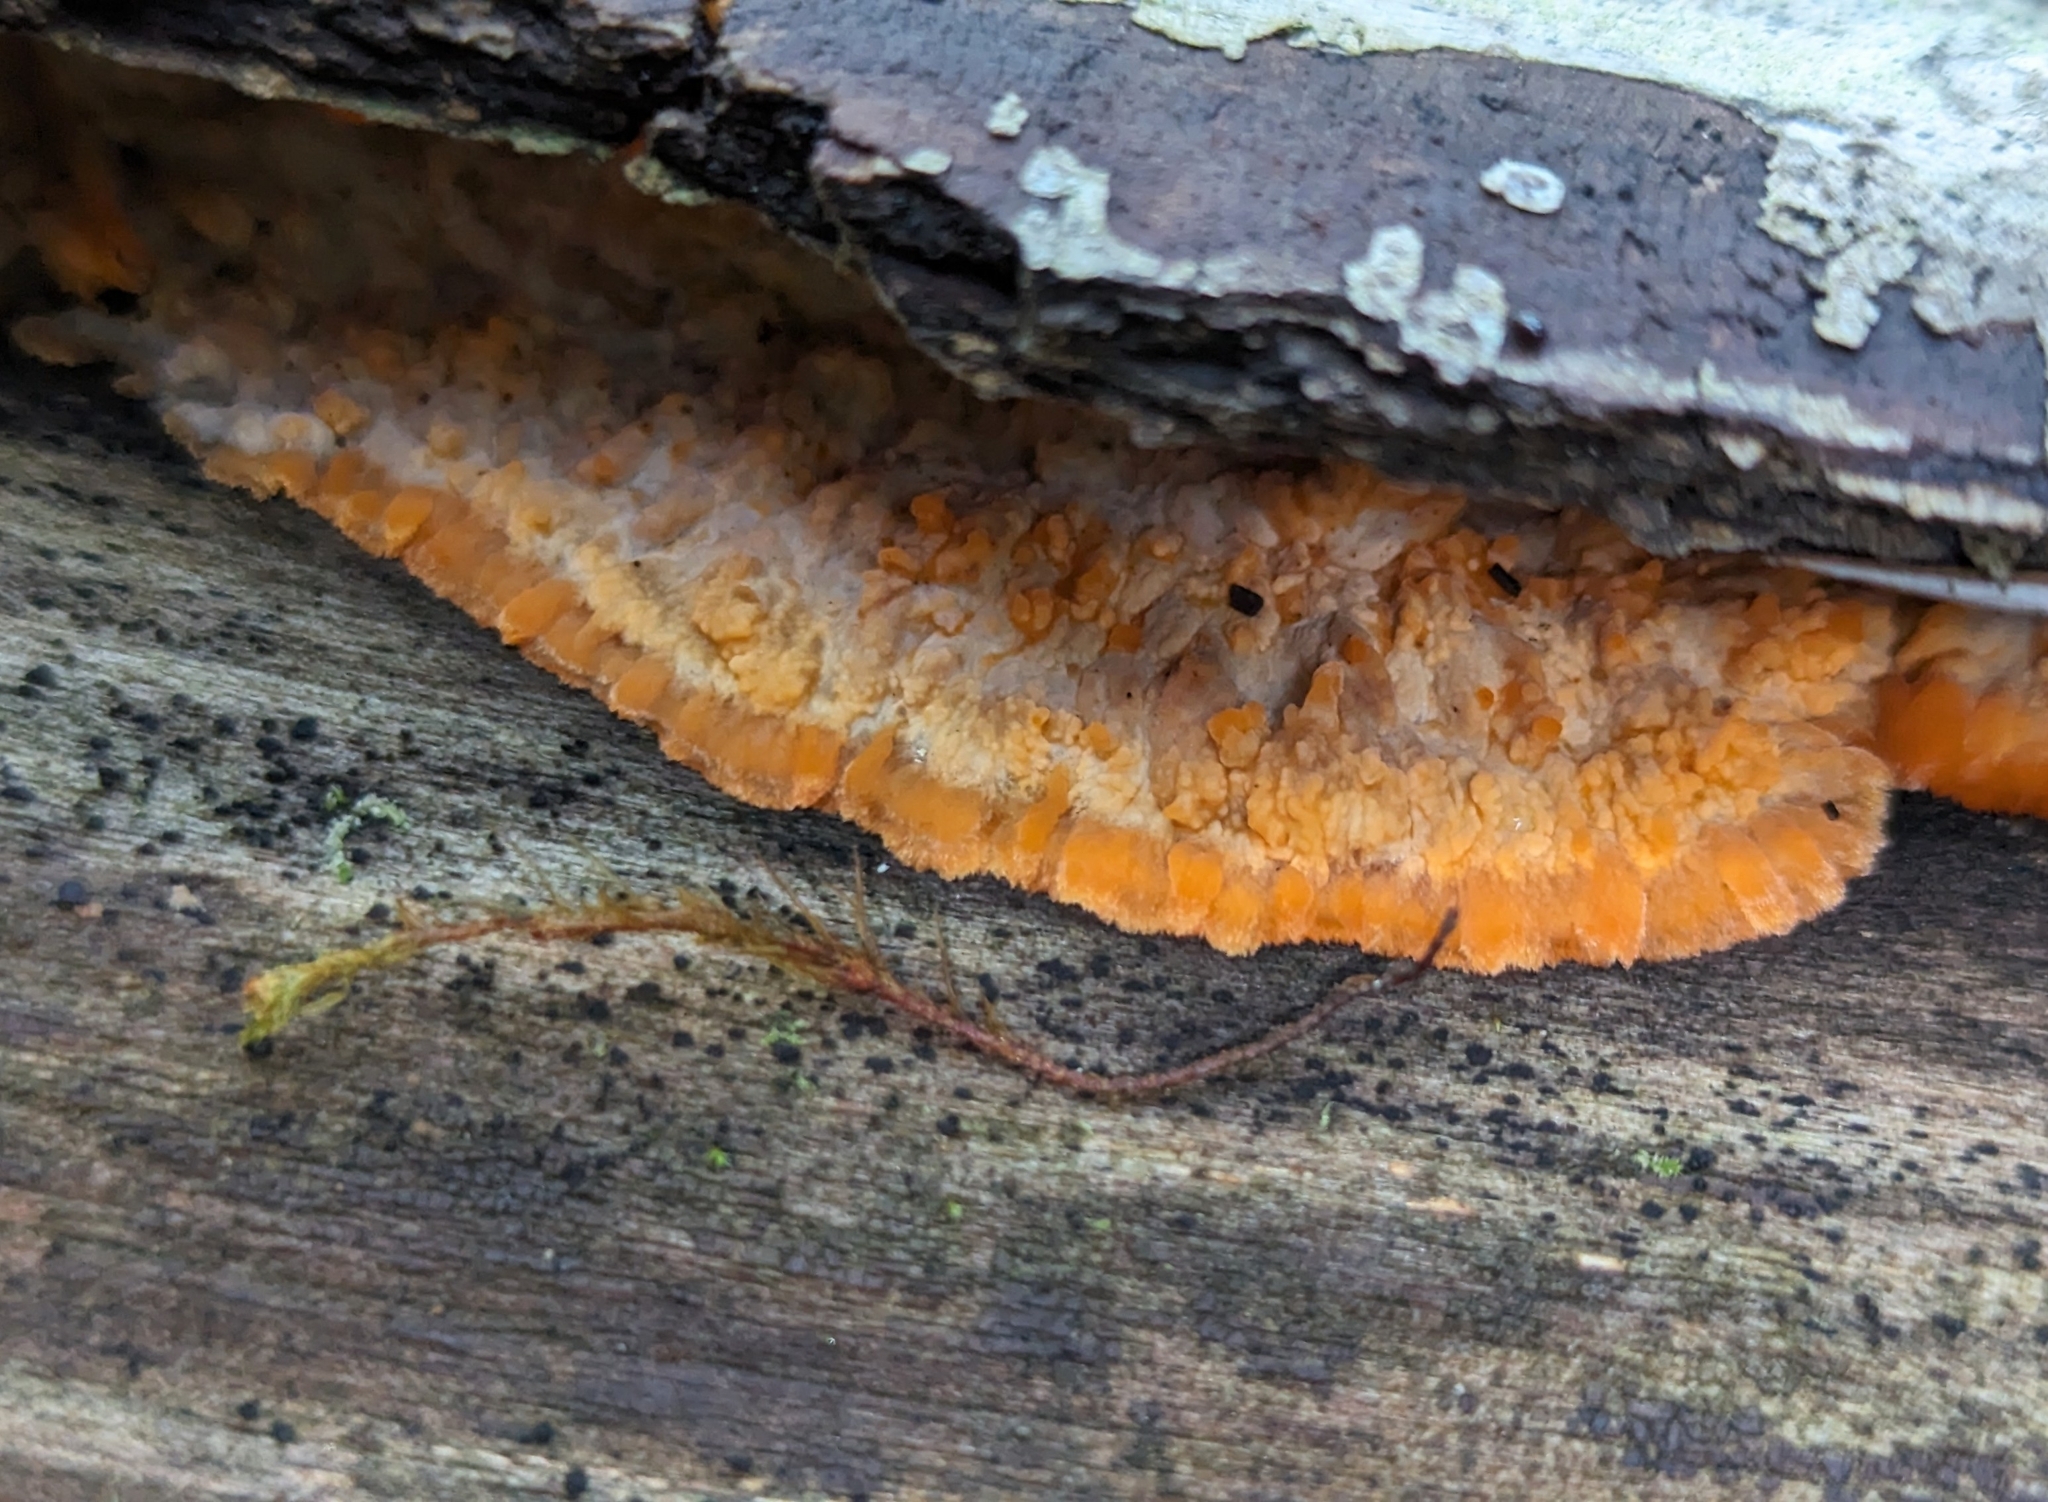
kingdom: Fungi
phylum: Basidiomycota
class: Agaricomycetes
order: Polyporales
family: Meruliaceae
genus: Phlebia
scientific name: Phlebia radiata
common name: Wrinkled crust
